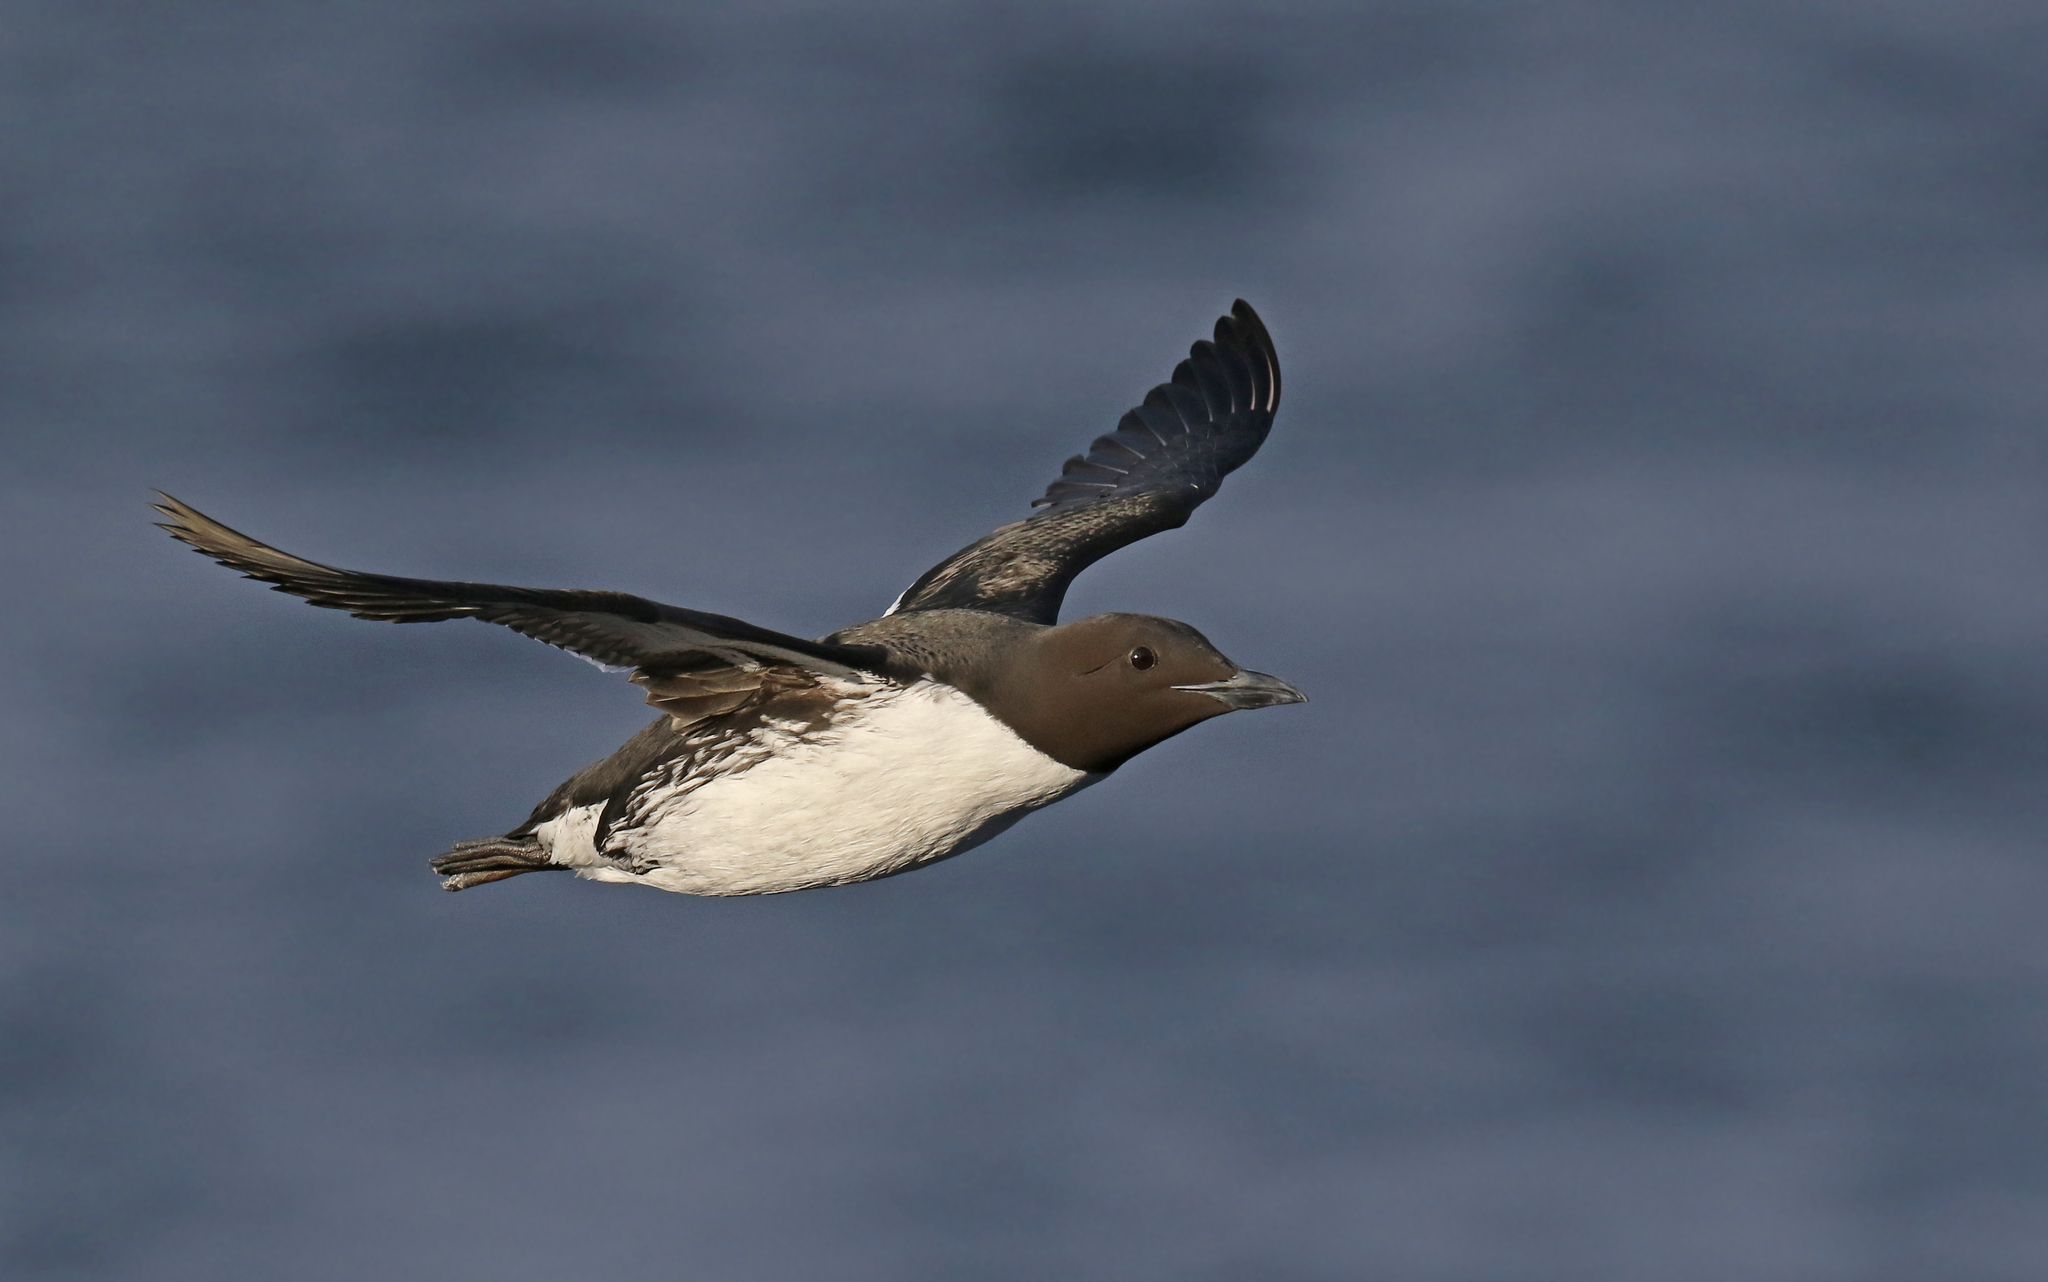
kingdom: Animalia
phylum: Chordata
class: Aves
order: Charadriiformes
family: Alcidae
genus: Uria
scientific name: Uria aalge
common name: Common murre
